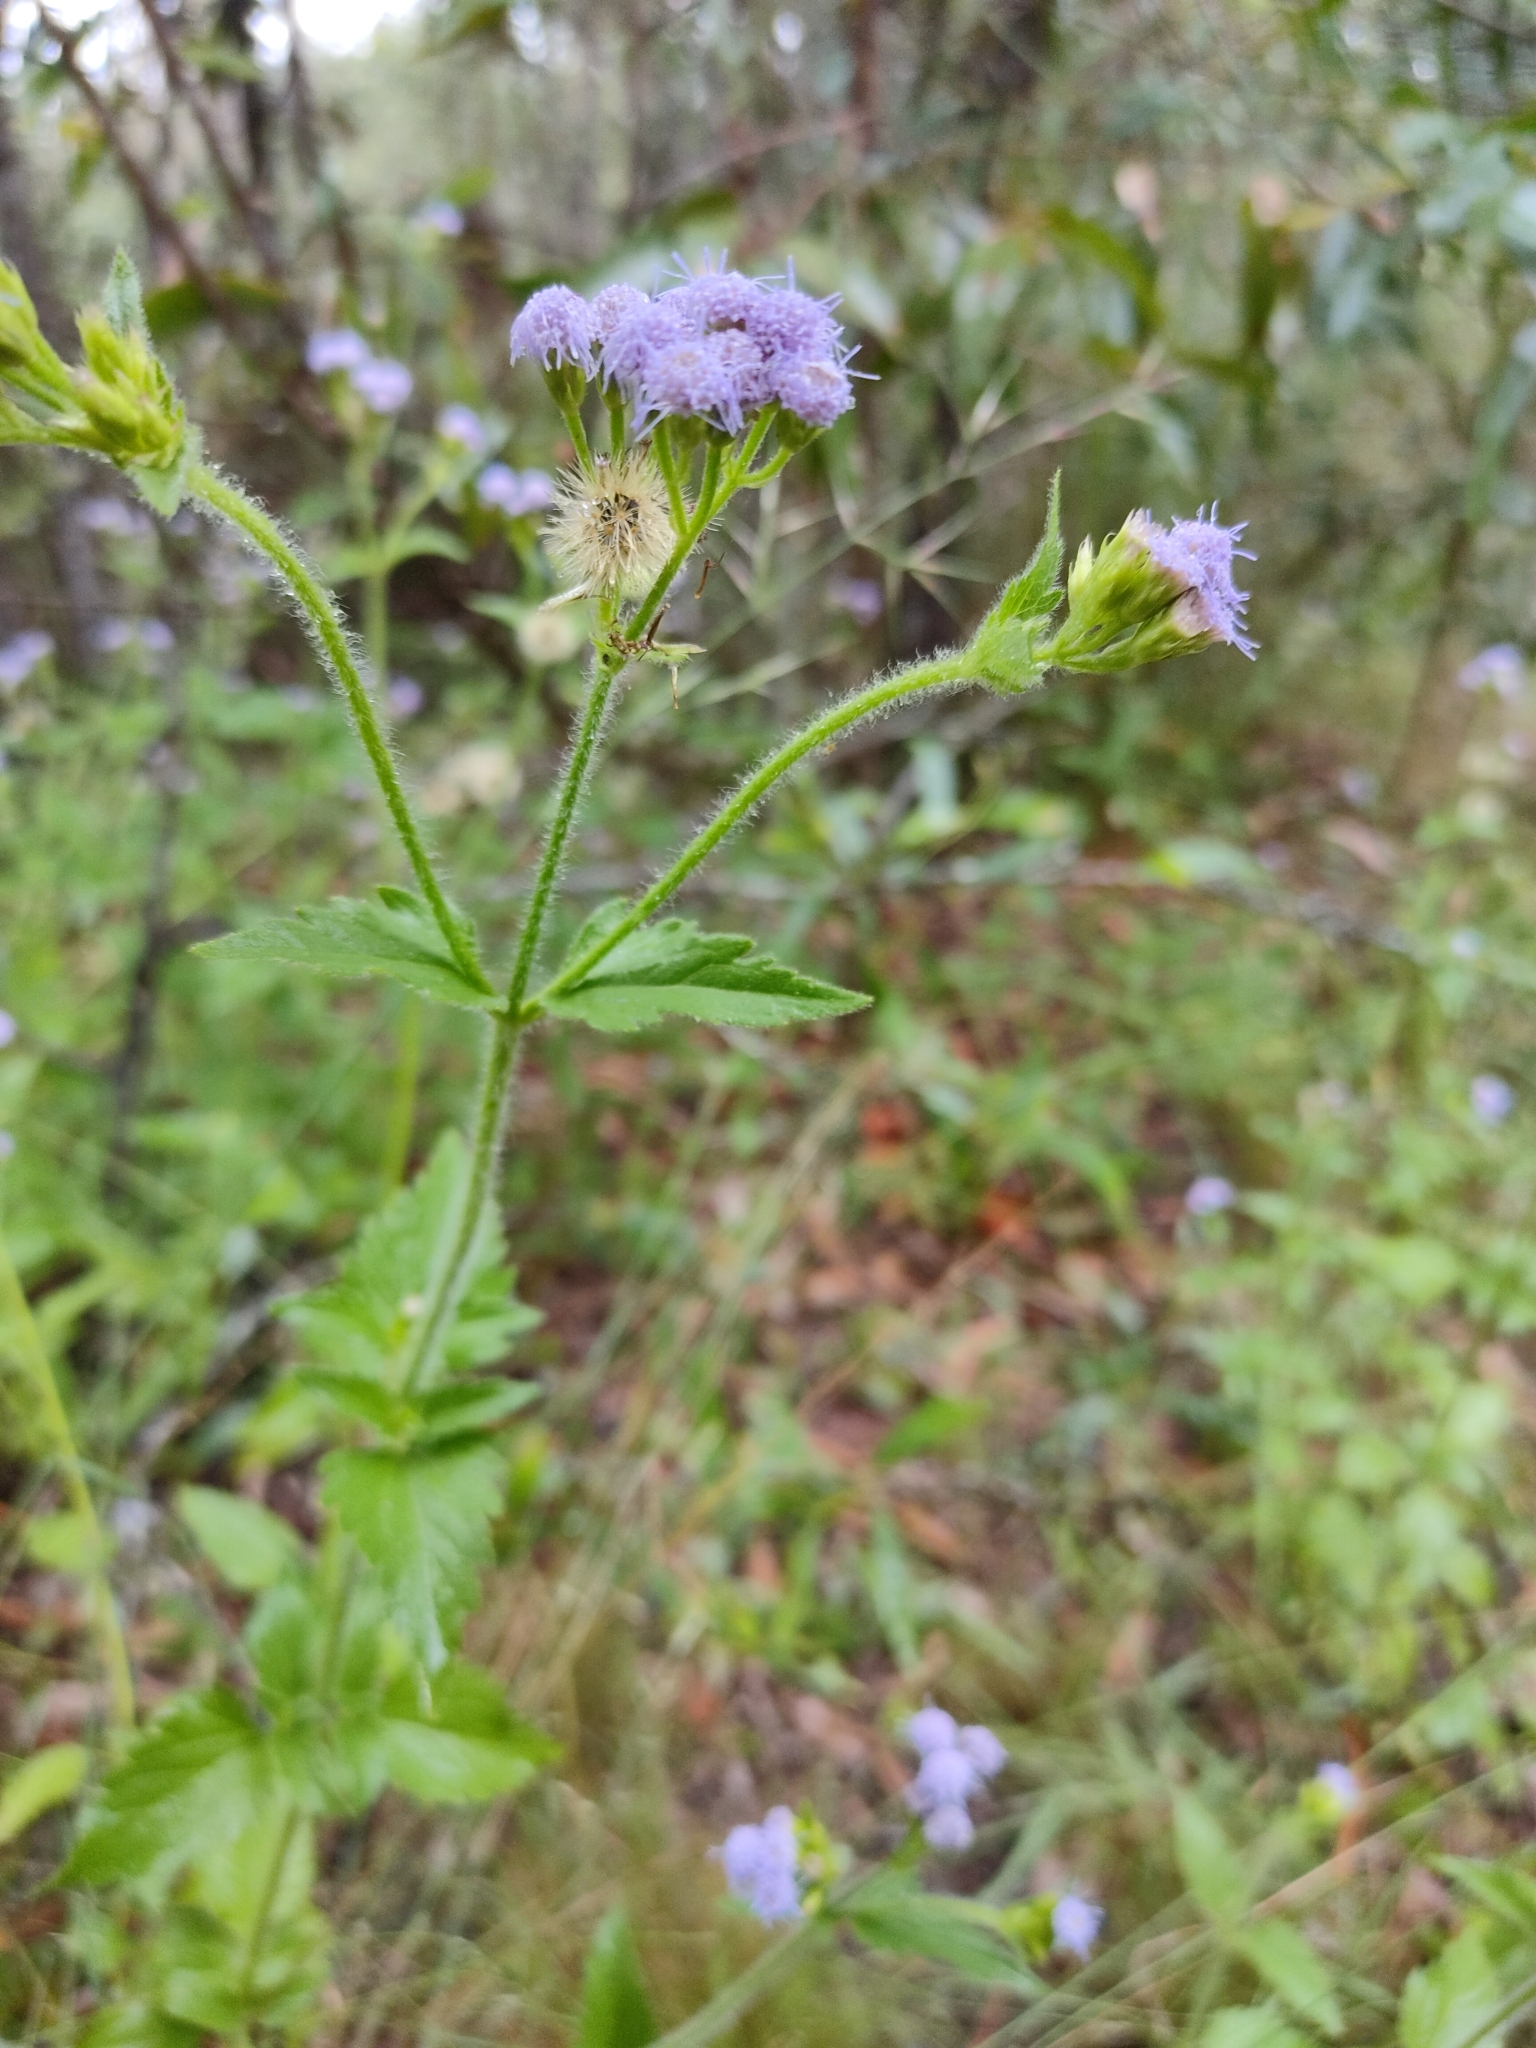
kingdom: Plantae
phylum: Tracheophyta
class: Magnoliopsida
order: Asterales
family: Asteraceae
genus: Praxelis
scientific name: Praxelis clematidea
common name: Praxelis
